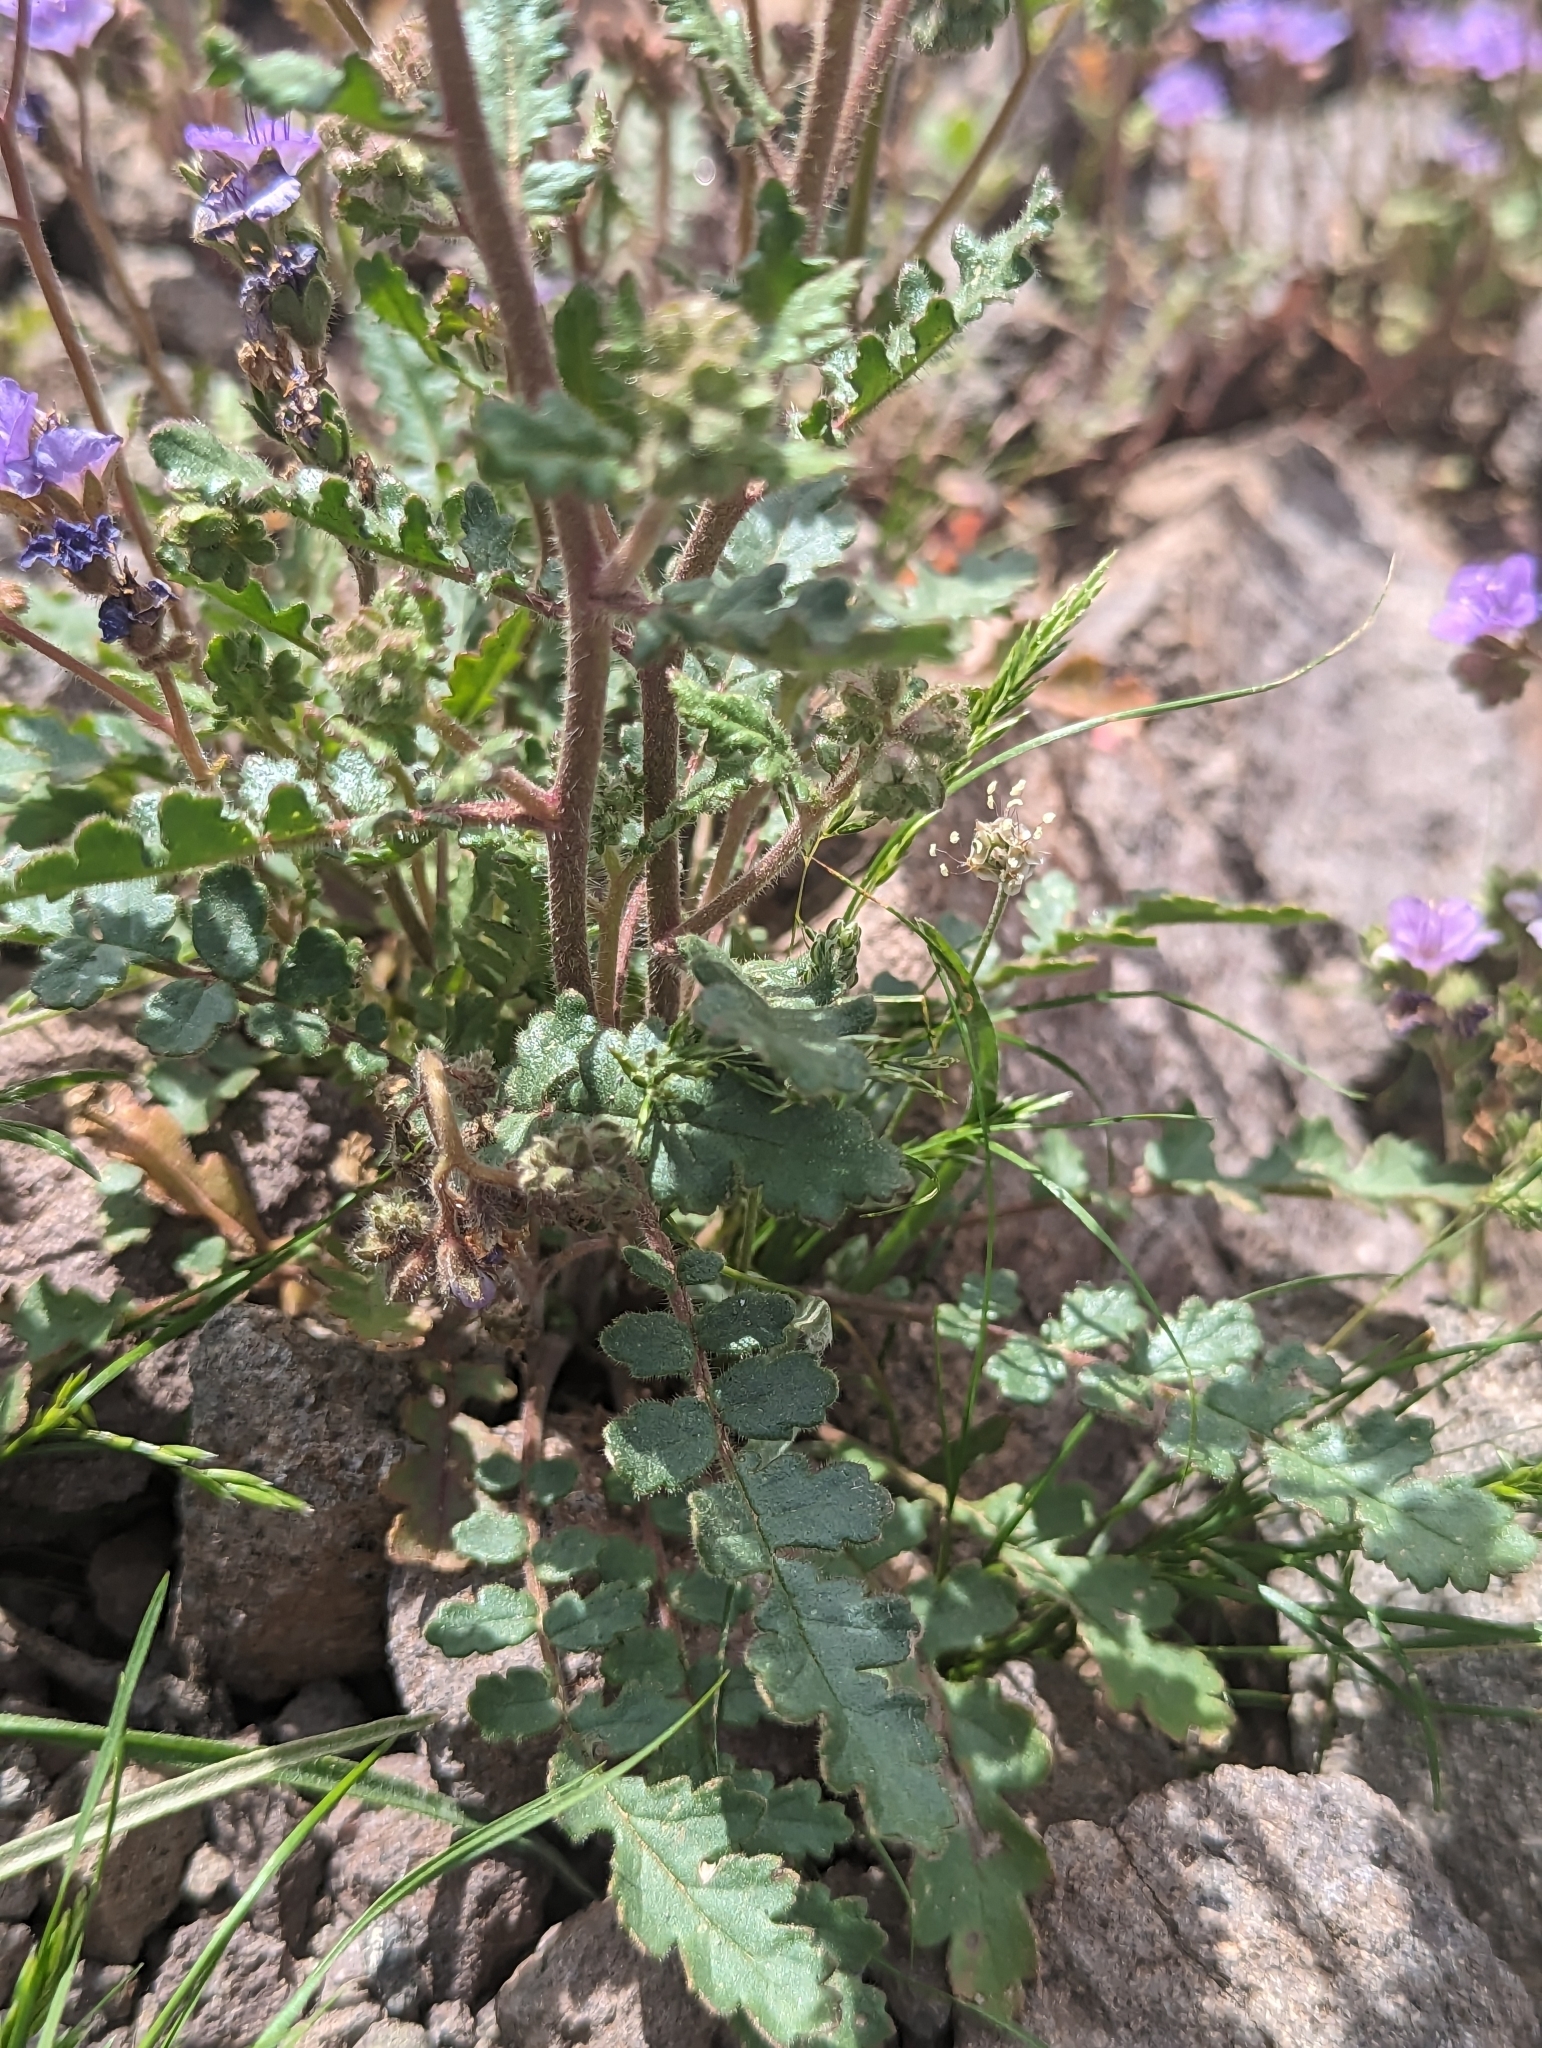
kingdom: Plantae
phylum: Tracheophyta
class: Magnoliopsida
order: Boraginales
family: Hydrophyllaceae
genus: Phacelia
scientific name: Phacelia crenulata
